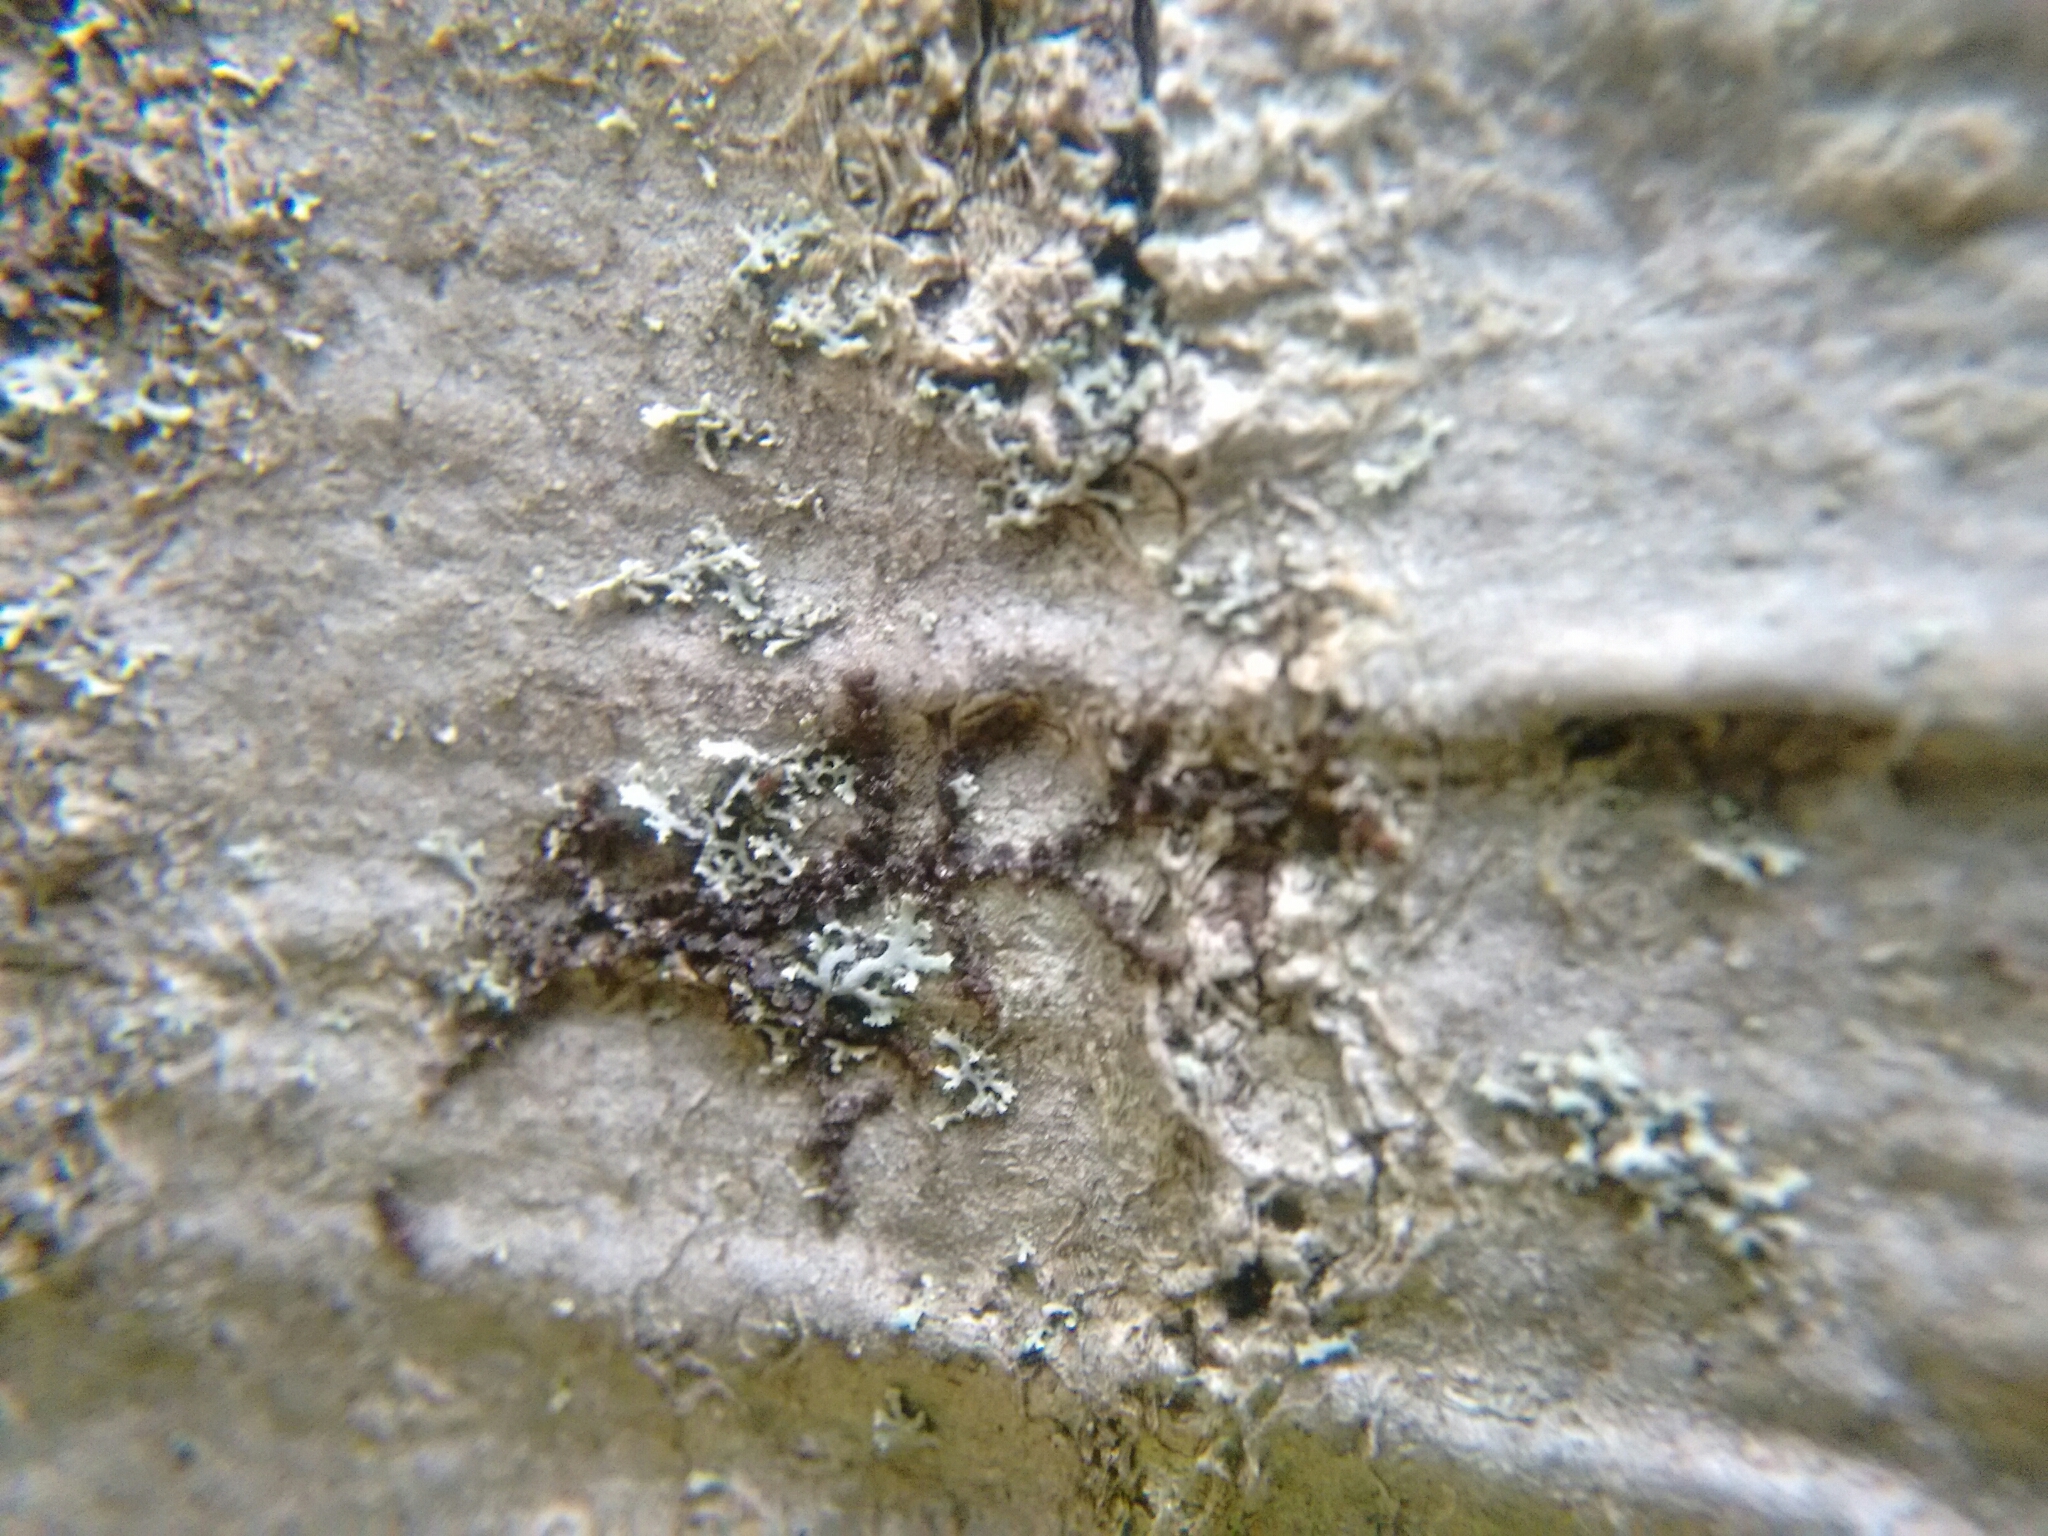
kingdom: Plantae
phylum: Marchantiophyta
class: Jungermanniopsida
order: Porellales
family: Frullaniaceae
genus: Frullania
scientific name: Frullania eboracensis
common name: New york scalewort
